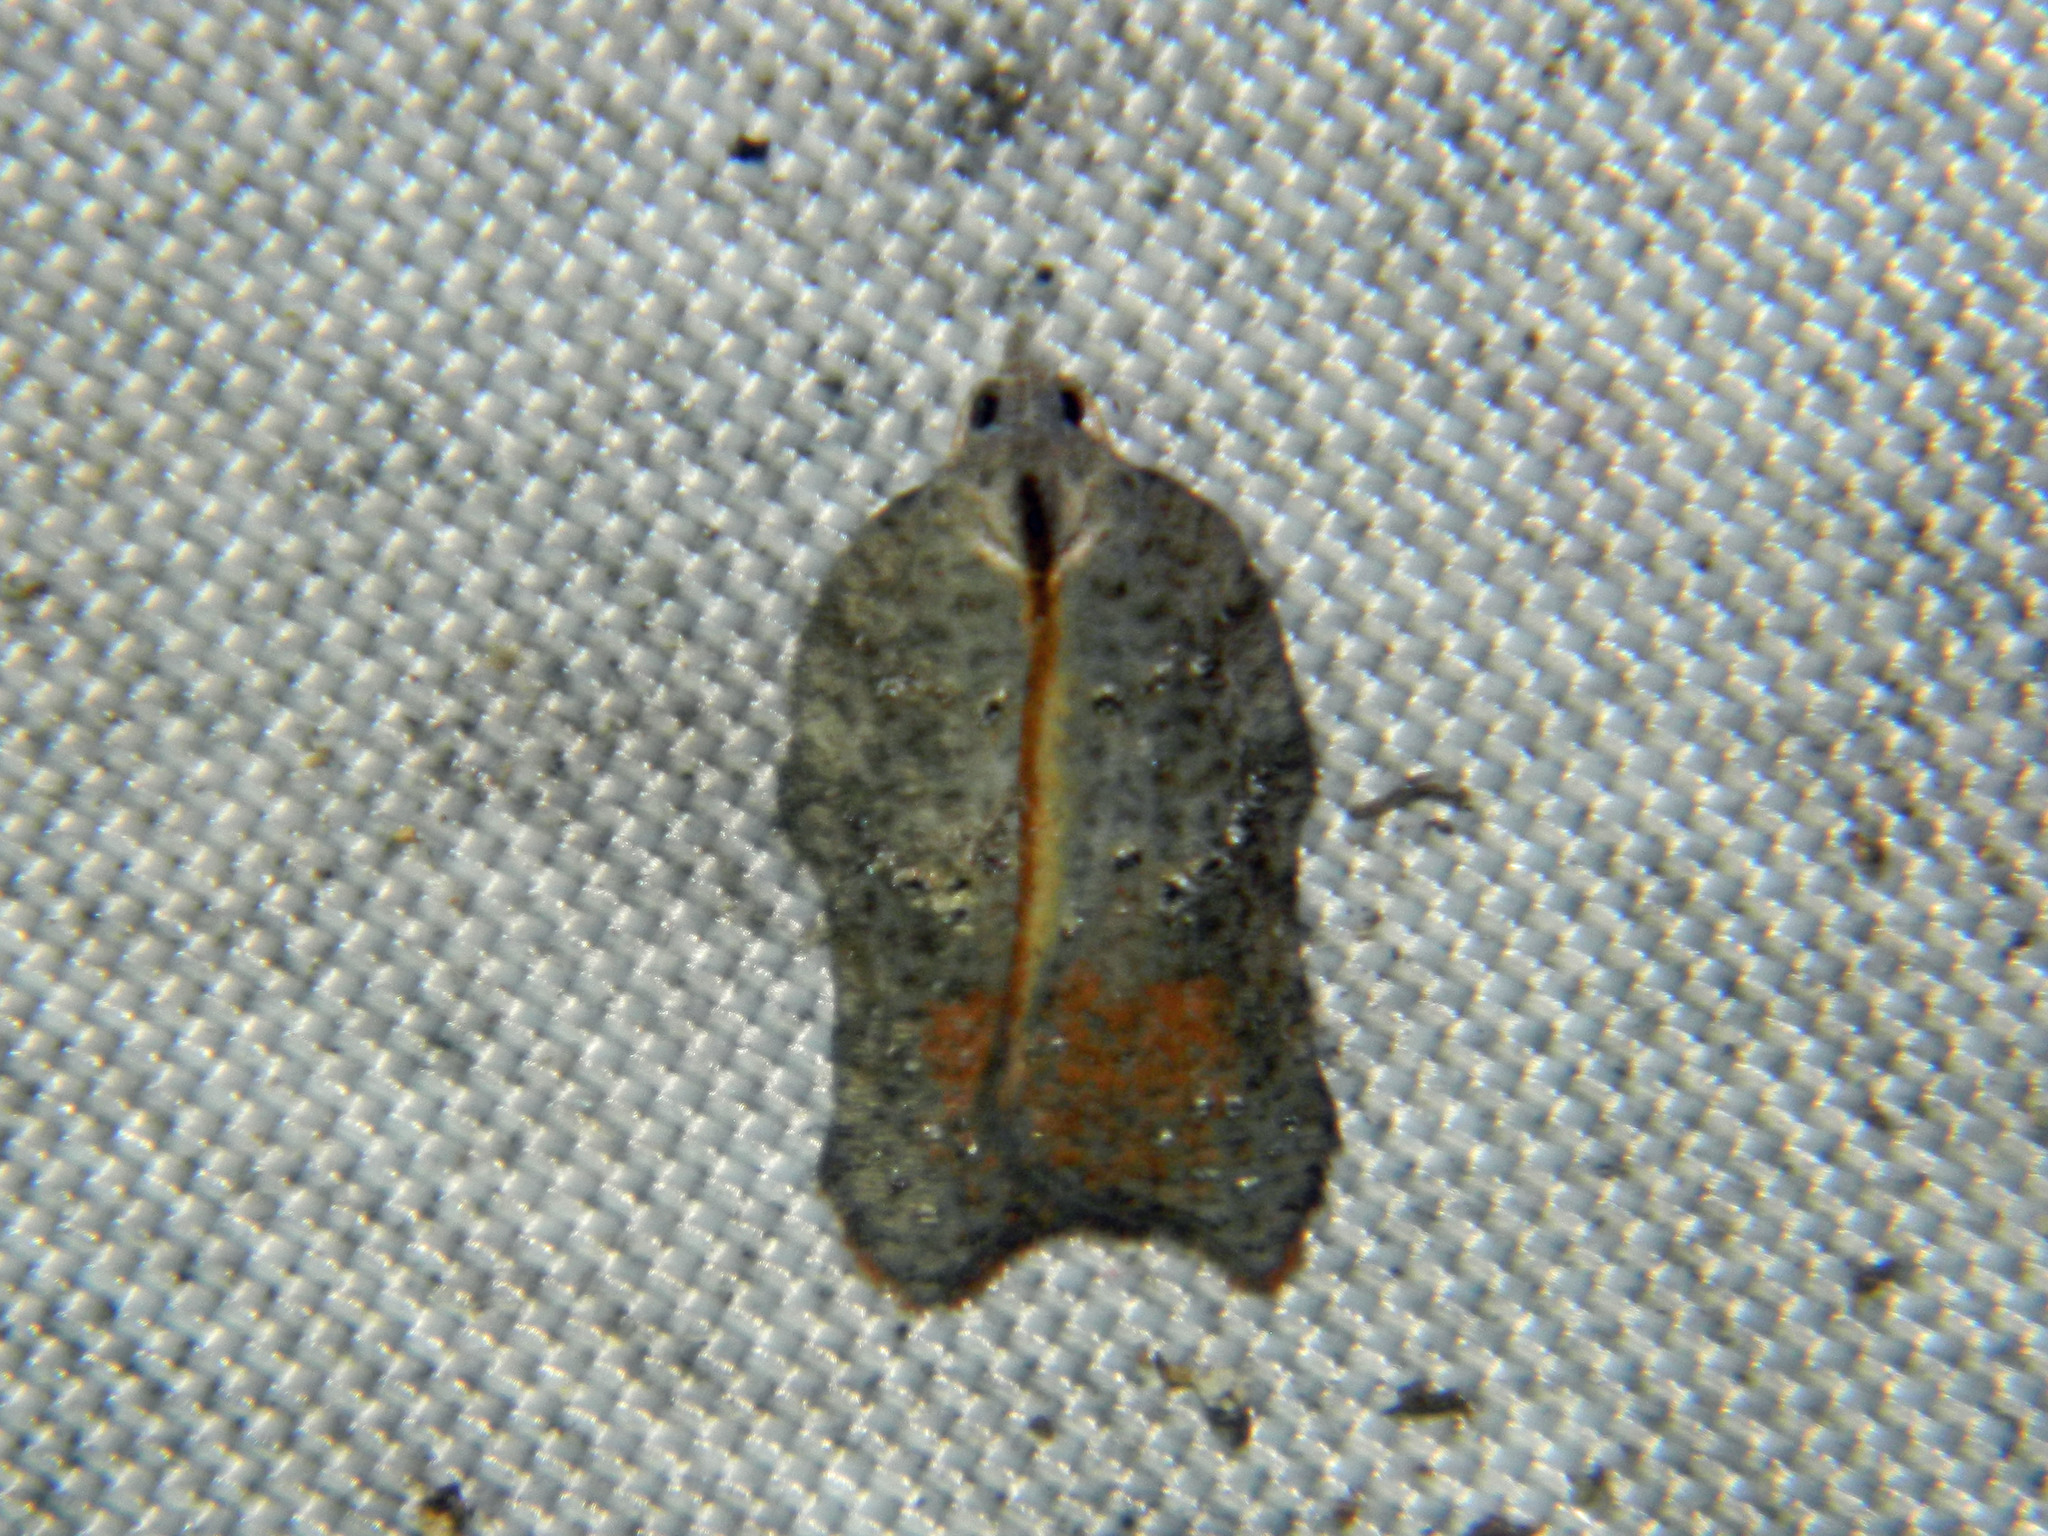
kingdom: Animalia
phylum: Arthropoda
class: Insecta
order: Lepidoptera
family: Tortricidae
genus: Acleris
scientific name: Acleris effractana
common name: Hook-winged tortrix moth
